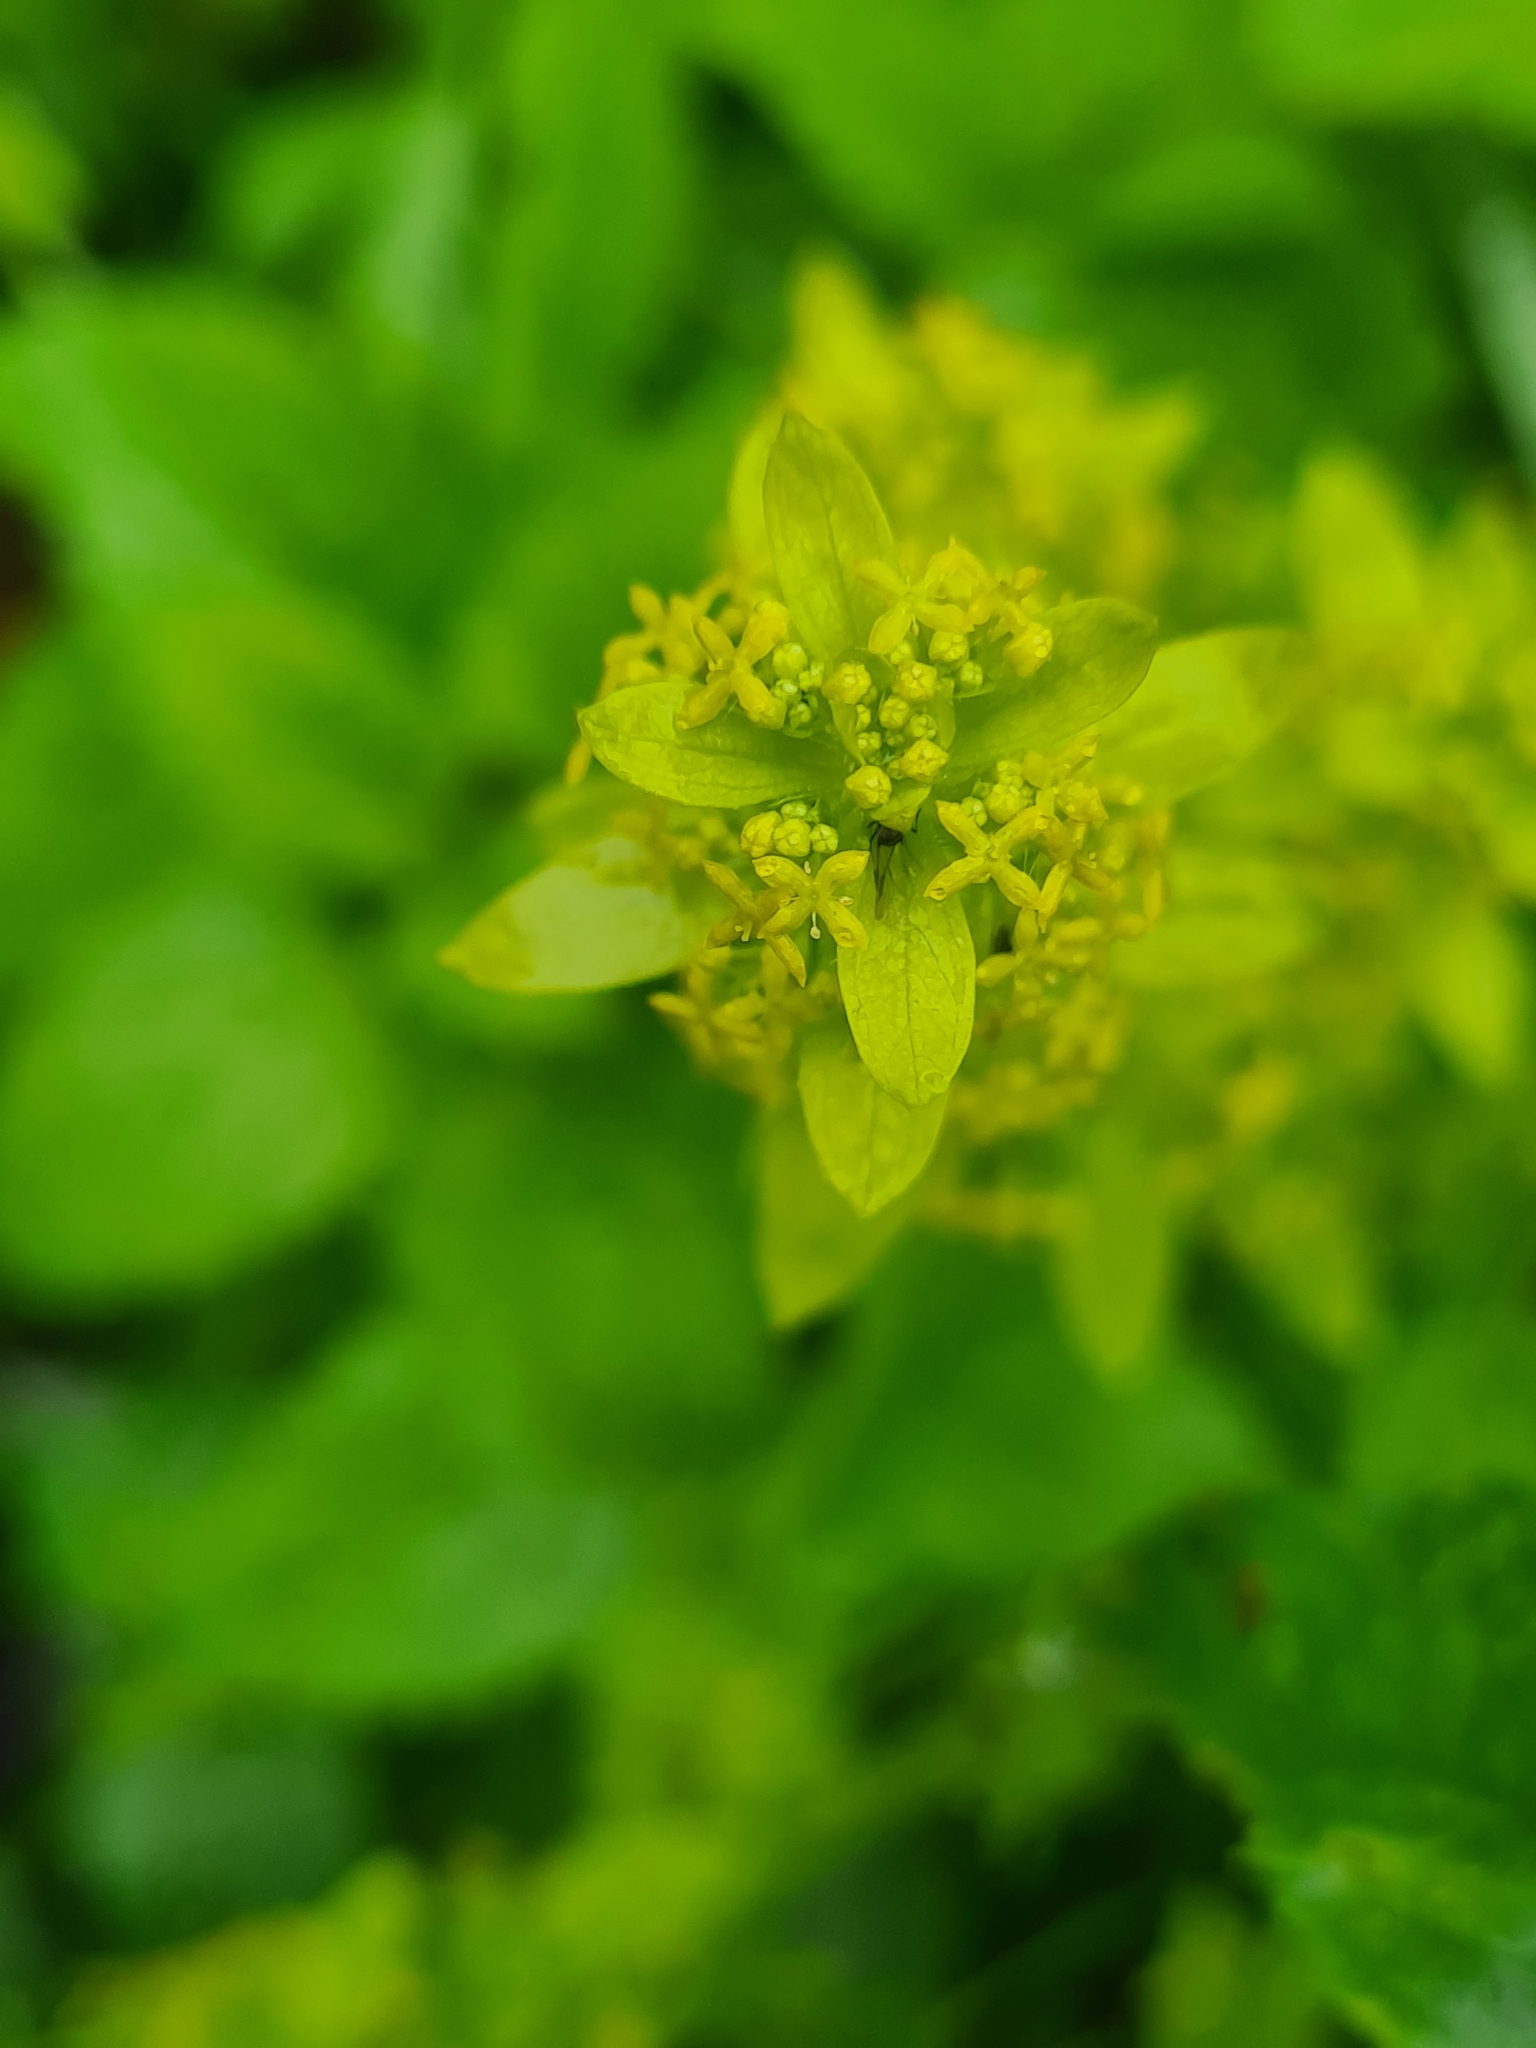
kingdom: Plantae
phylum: Tracheophyta
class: Magnoliopsida
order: Gentianales
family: Rubiaceae
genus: Cruciata
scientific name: Cruciata laevipes
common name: Crosswort
